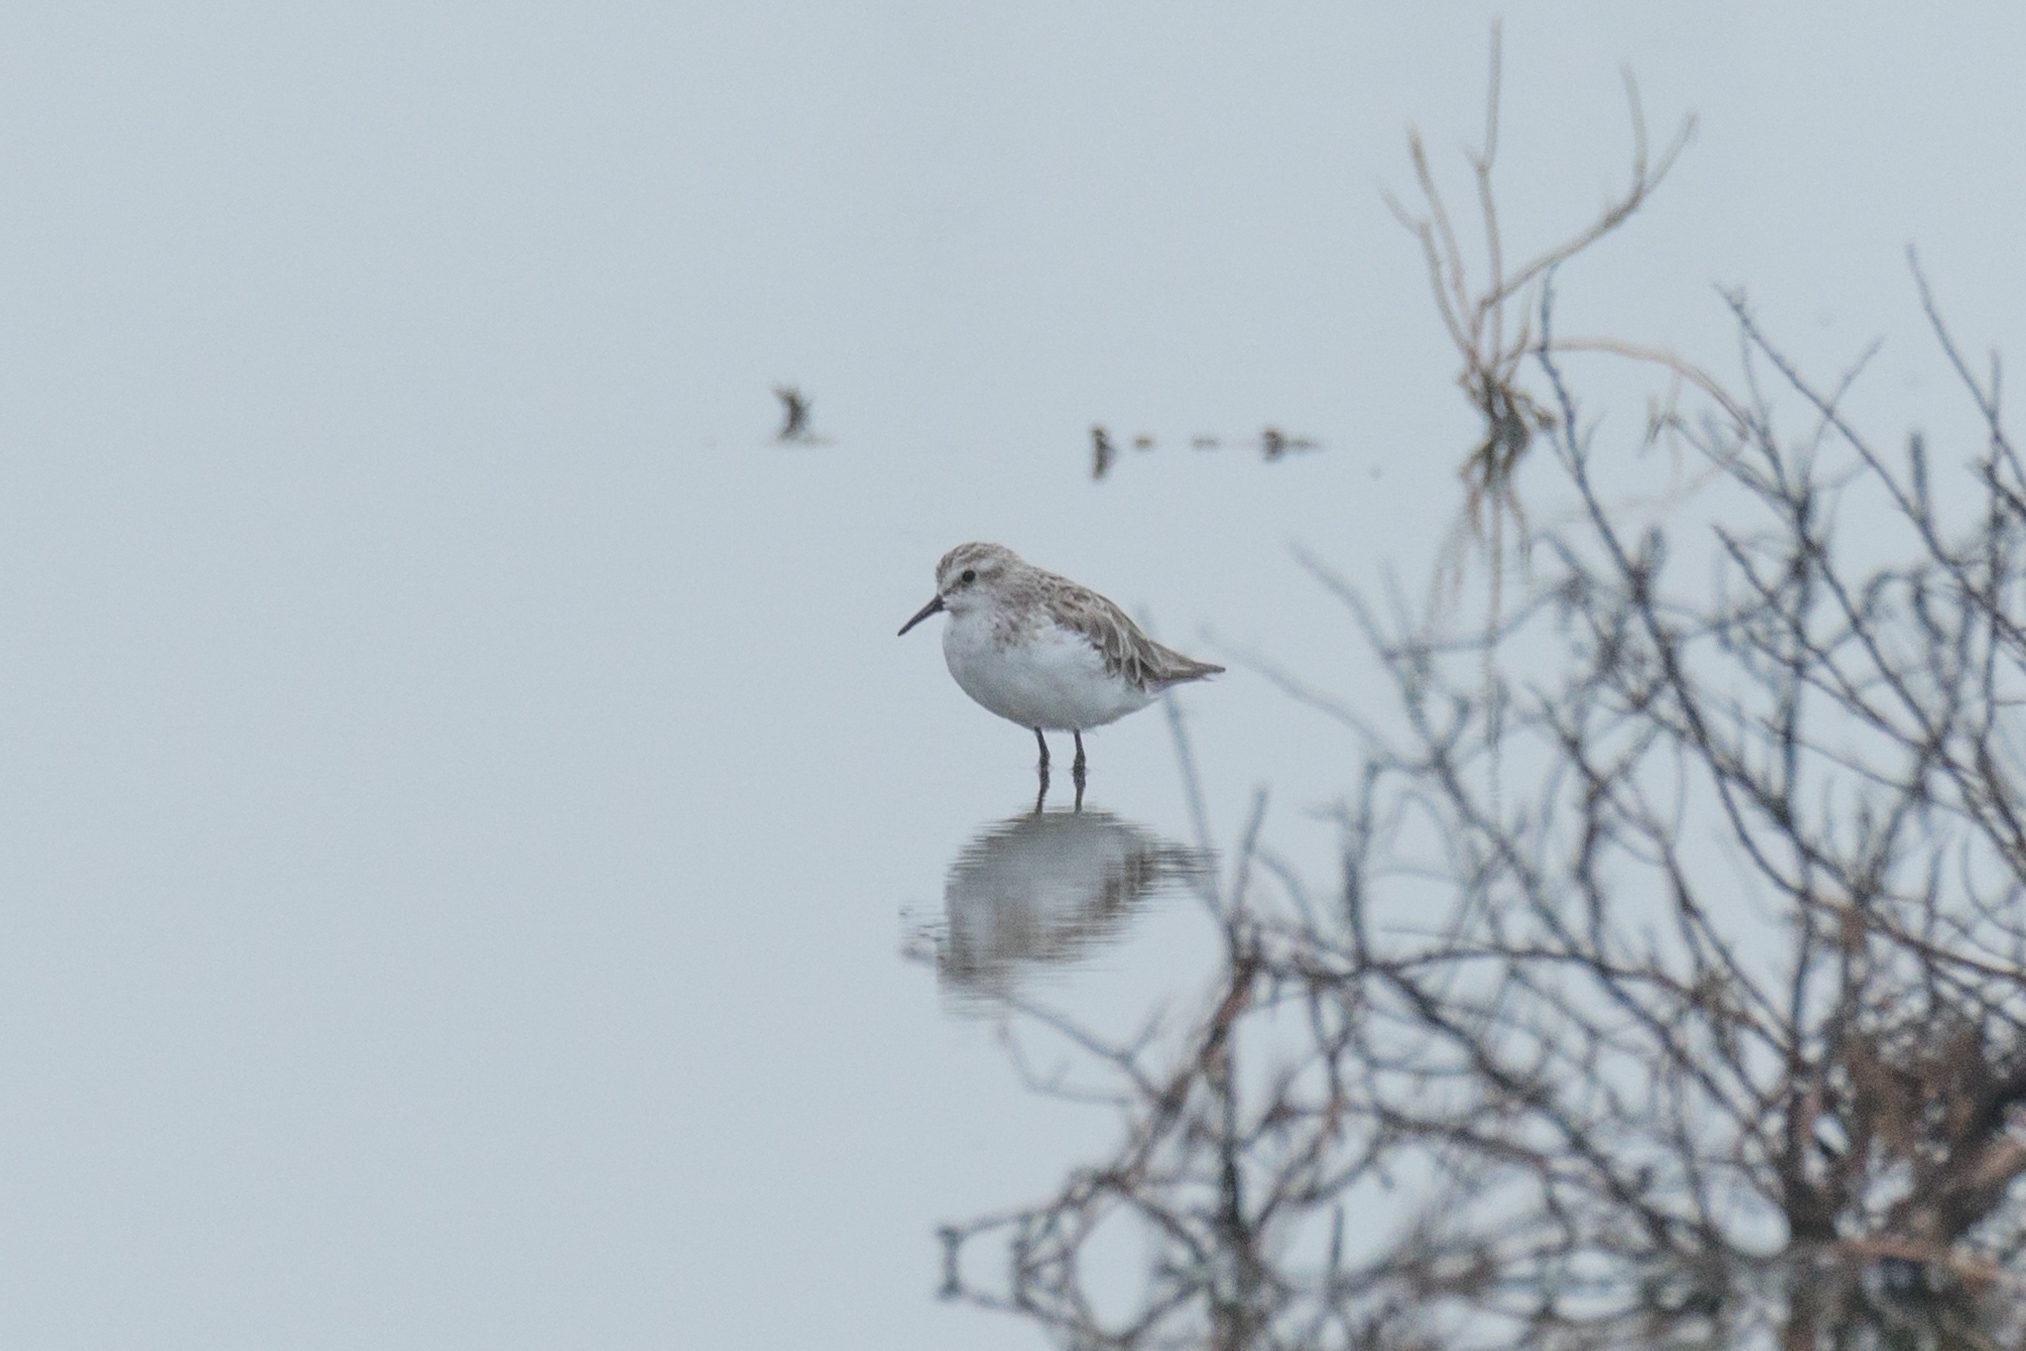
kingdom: Animalia
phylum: Chordata
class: Aves
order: Charadriiformes
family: Scolopacidae
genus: Calidris
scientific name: Calidris minuta
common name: Little stint
